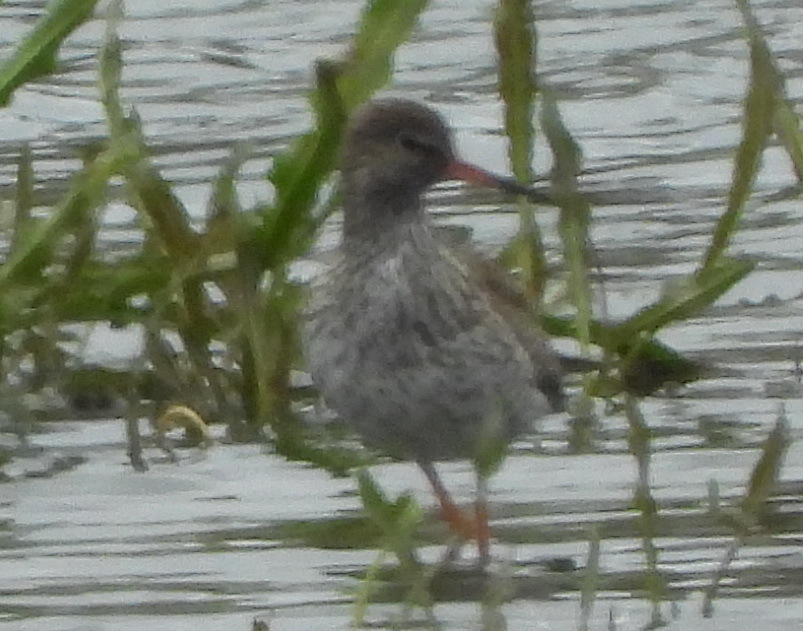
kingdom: Animalia
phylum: Chordata
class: Aves
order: Charadriiformes
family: Scolopacidae
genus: Tringa
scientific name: Tringa totanus
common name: Common redshank
